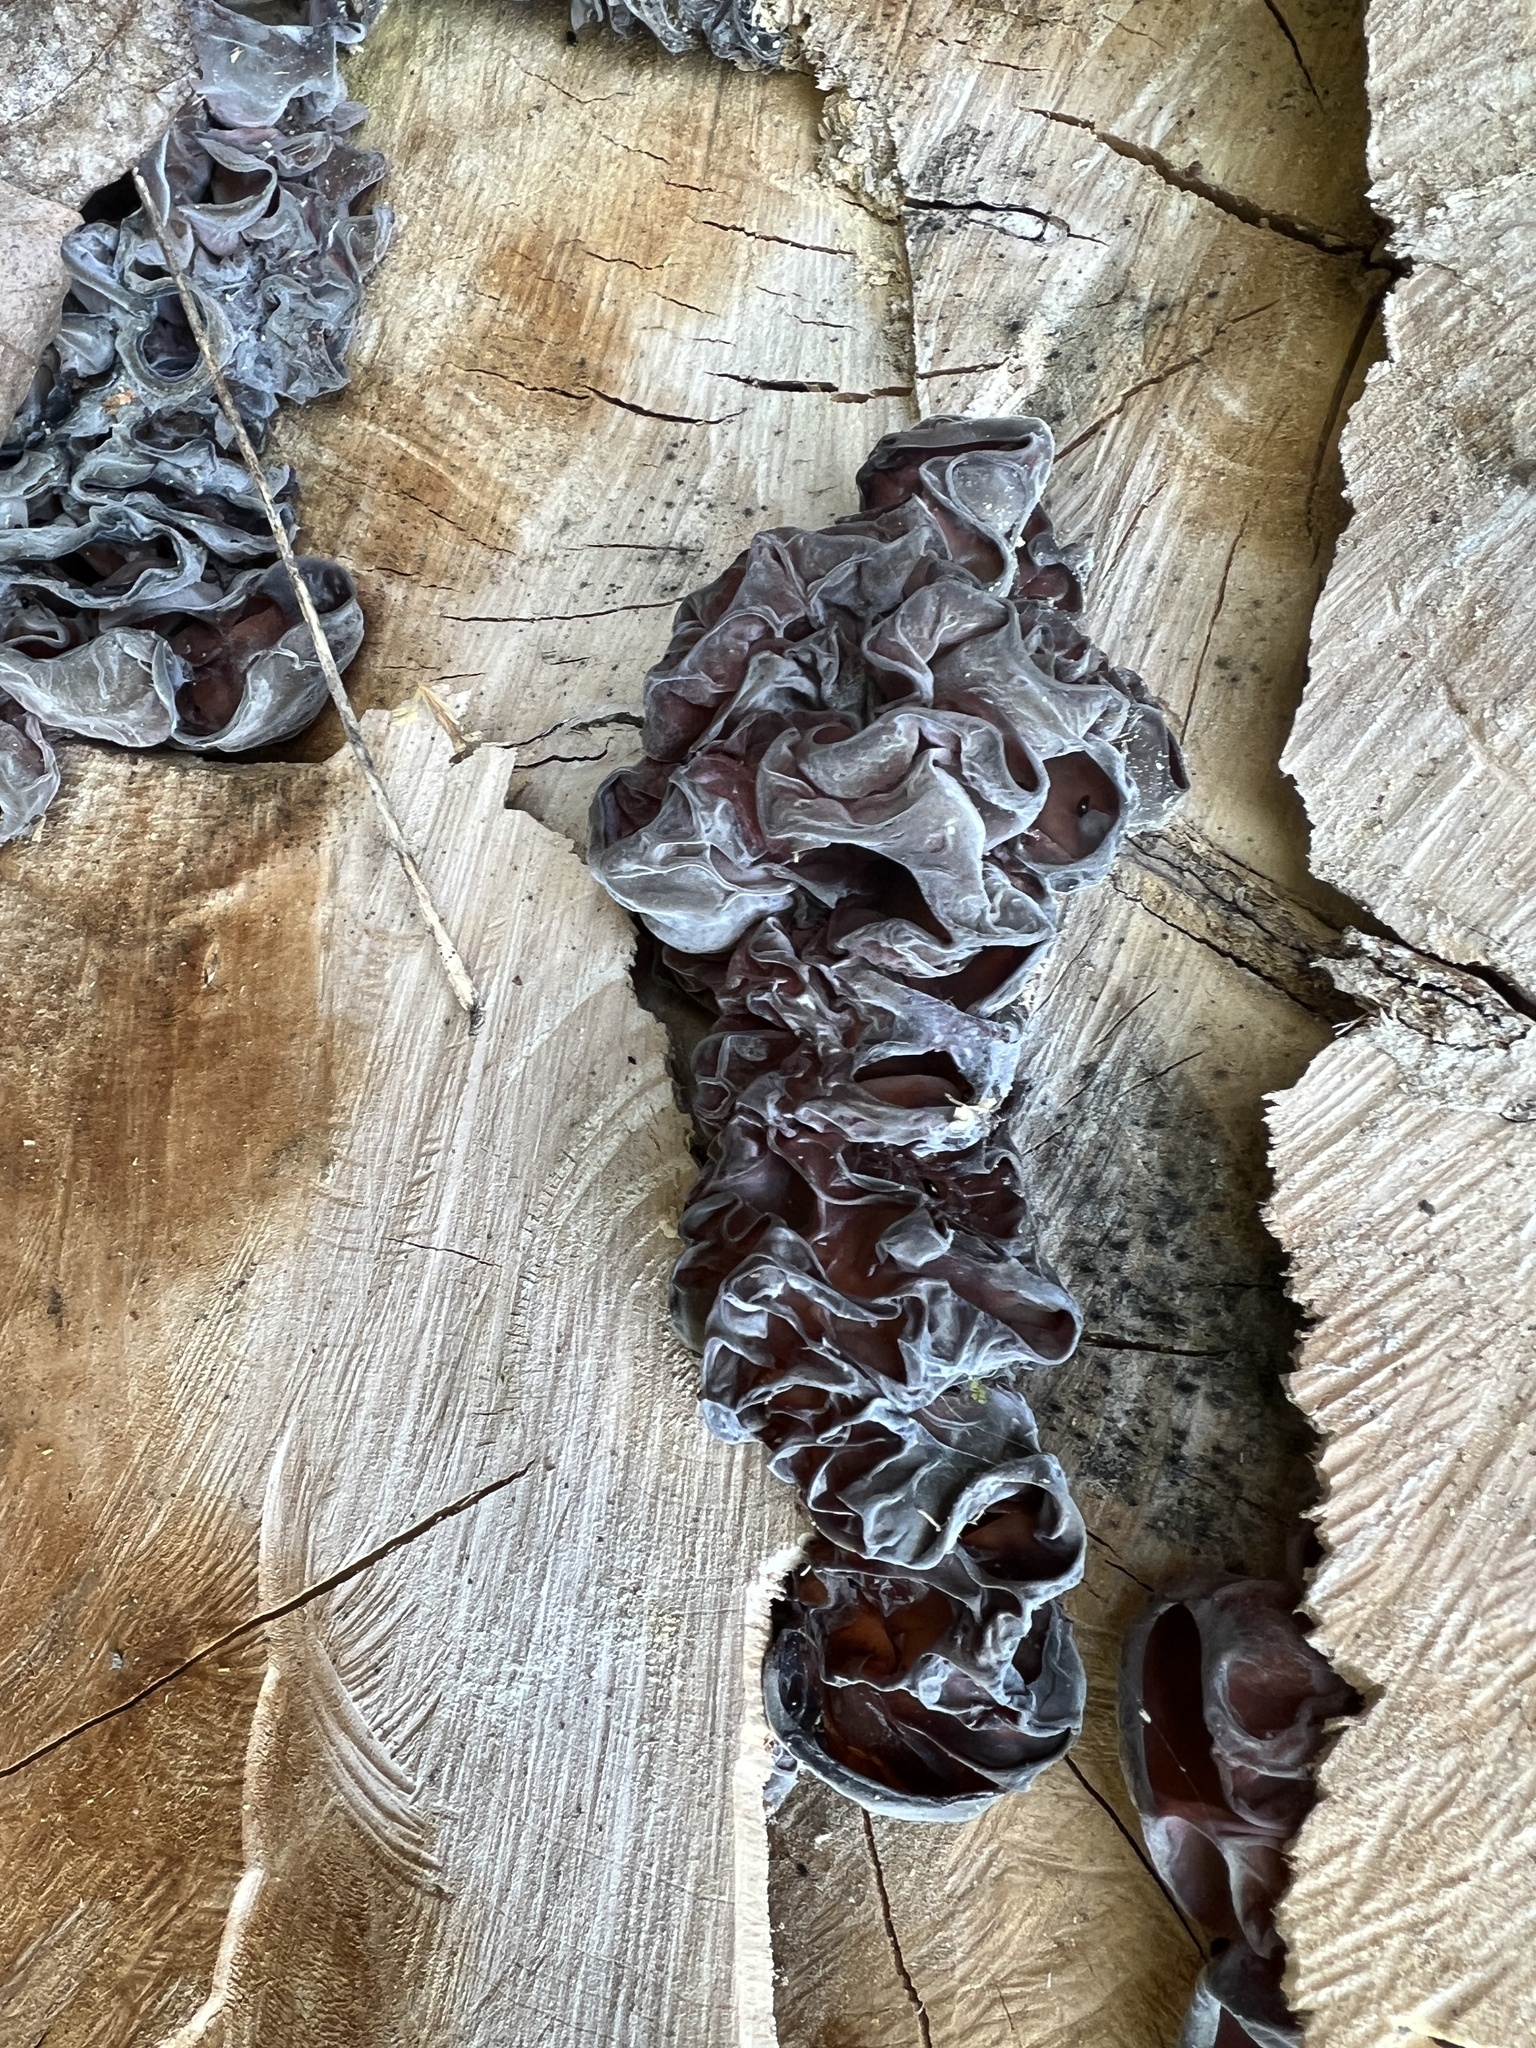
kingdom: Fungi
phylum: Basidiomycota
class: Agaricomycetes
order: Auriculariales
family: Auriculariaceae
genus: Auricularia
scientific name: Auricularia fuscosuccinea
